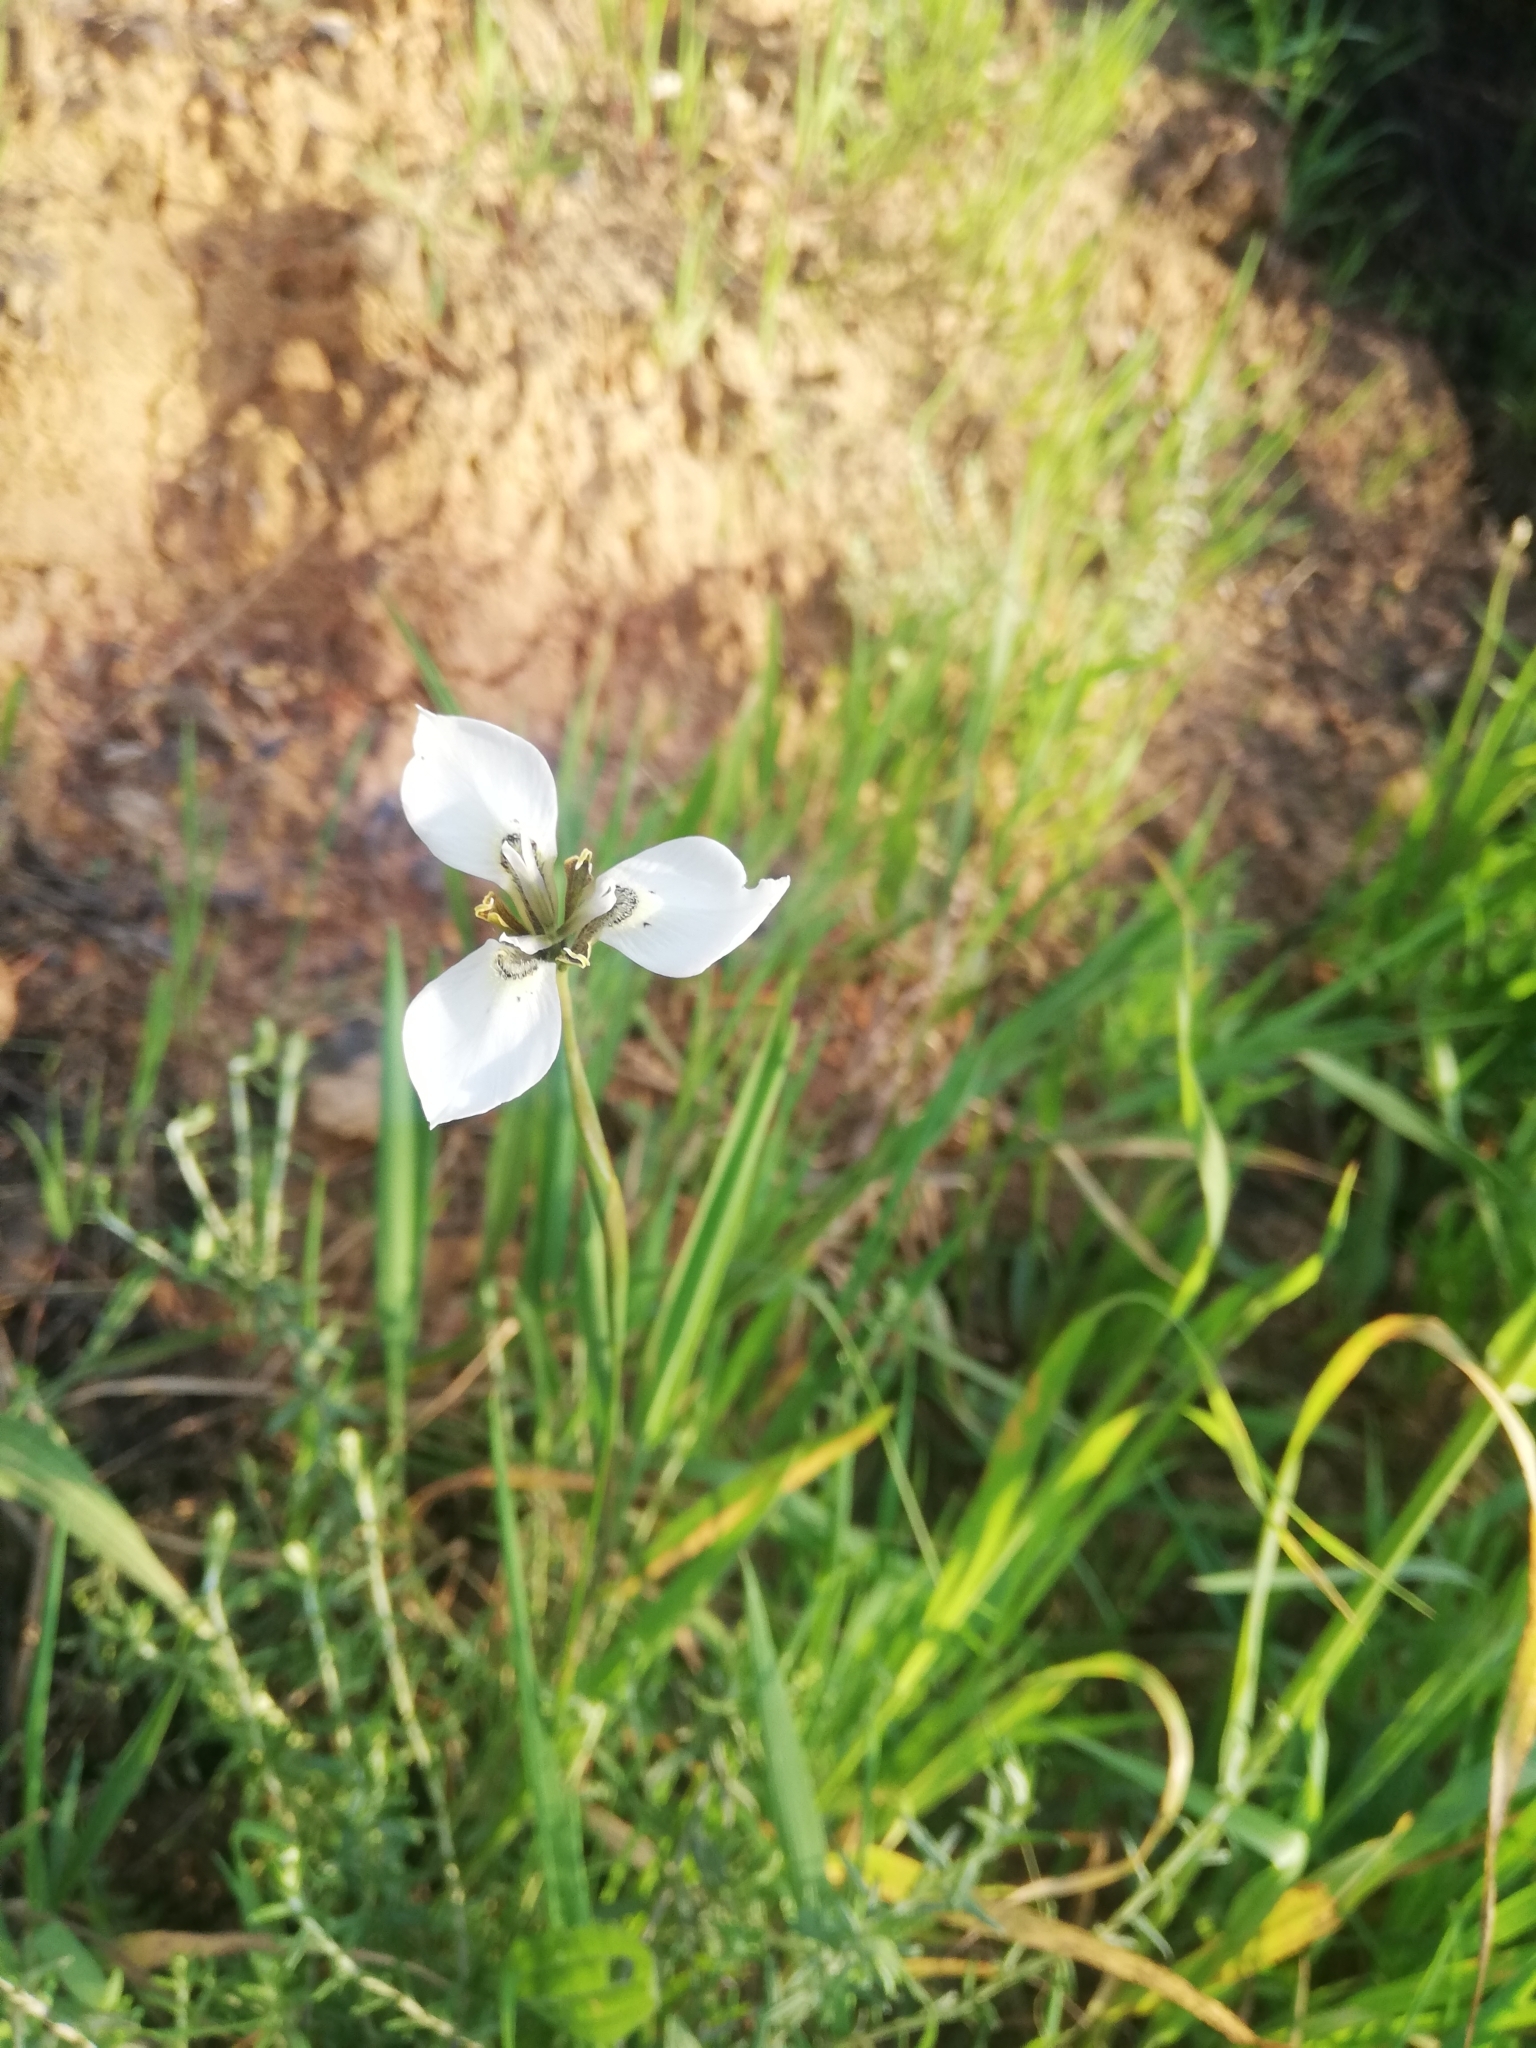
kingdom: Plantae
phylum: Tracheophyta
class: Liliopsida
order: Asparagales
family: Iridaceae
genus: Moraea
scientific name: Moraea tricuspidata
